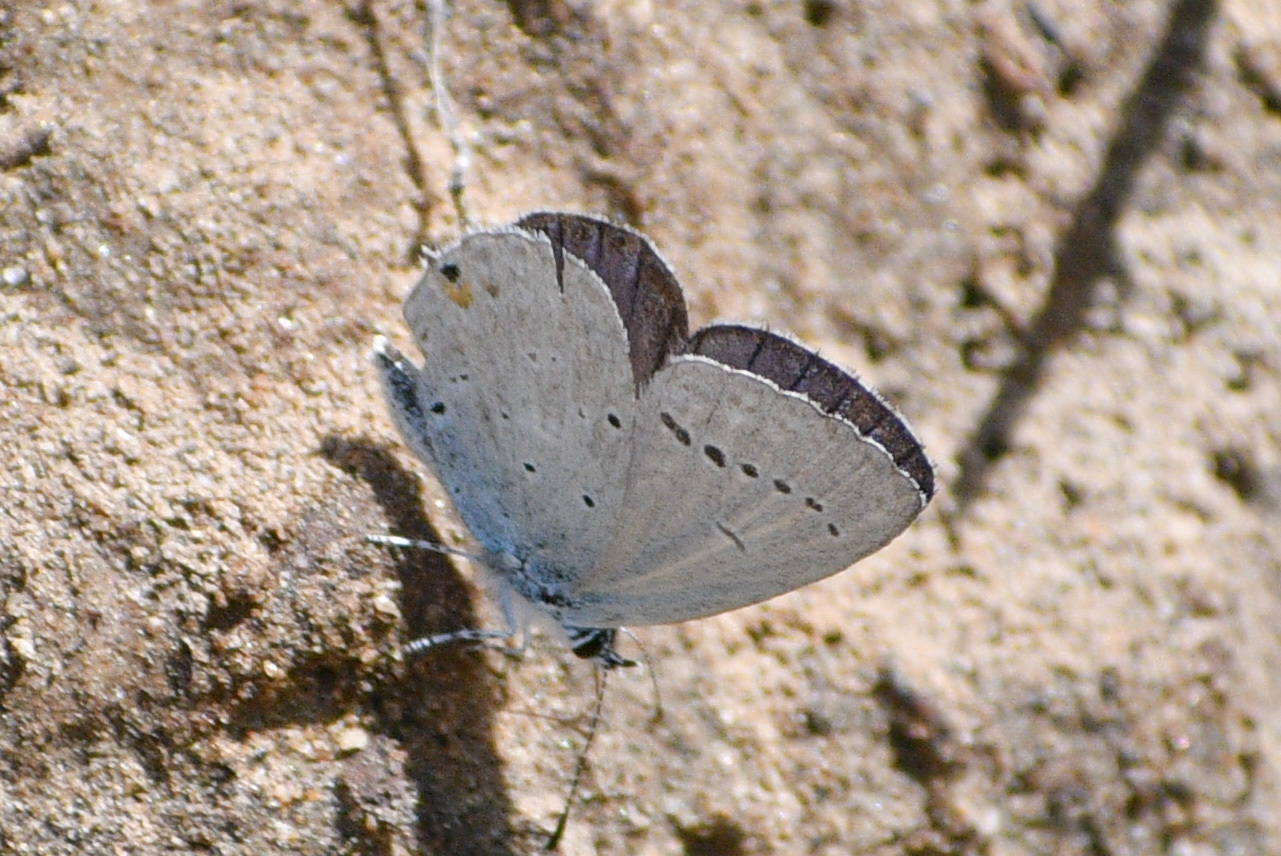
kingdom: Animalia
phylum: Arthropoda
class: Insecta
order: Lepidoptera
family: Lycaenidae
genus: Elkalyce
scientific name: Elkalyce amyntula
